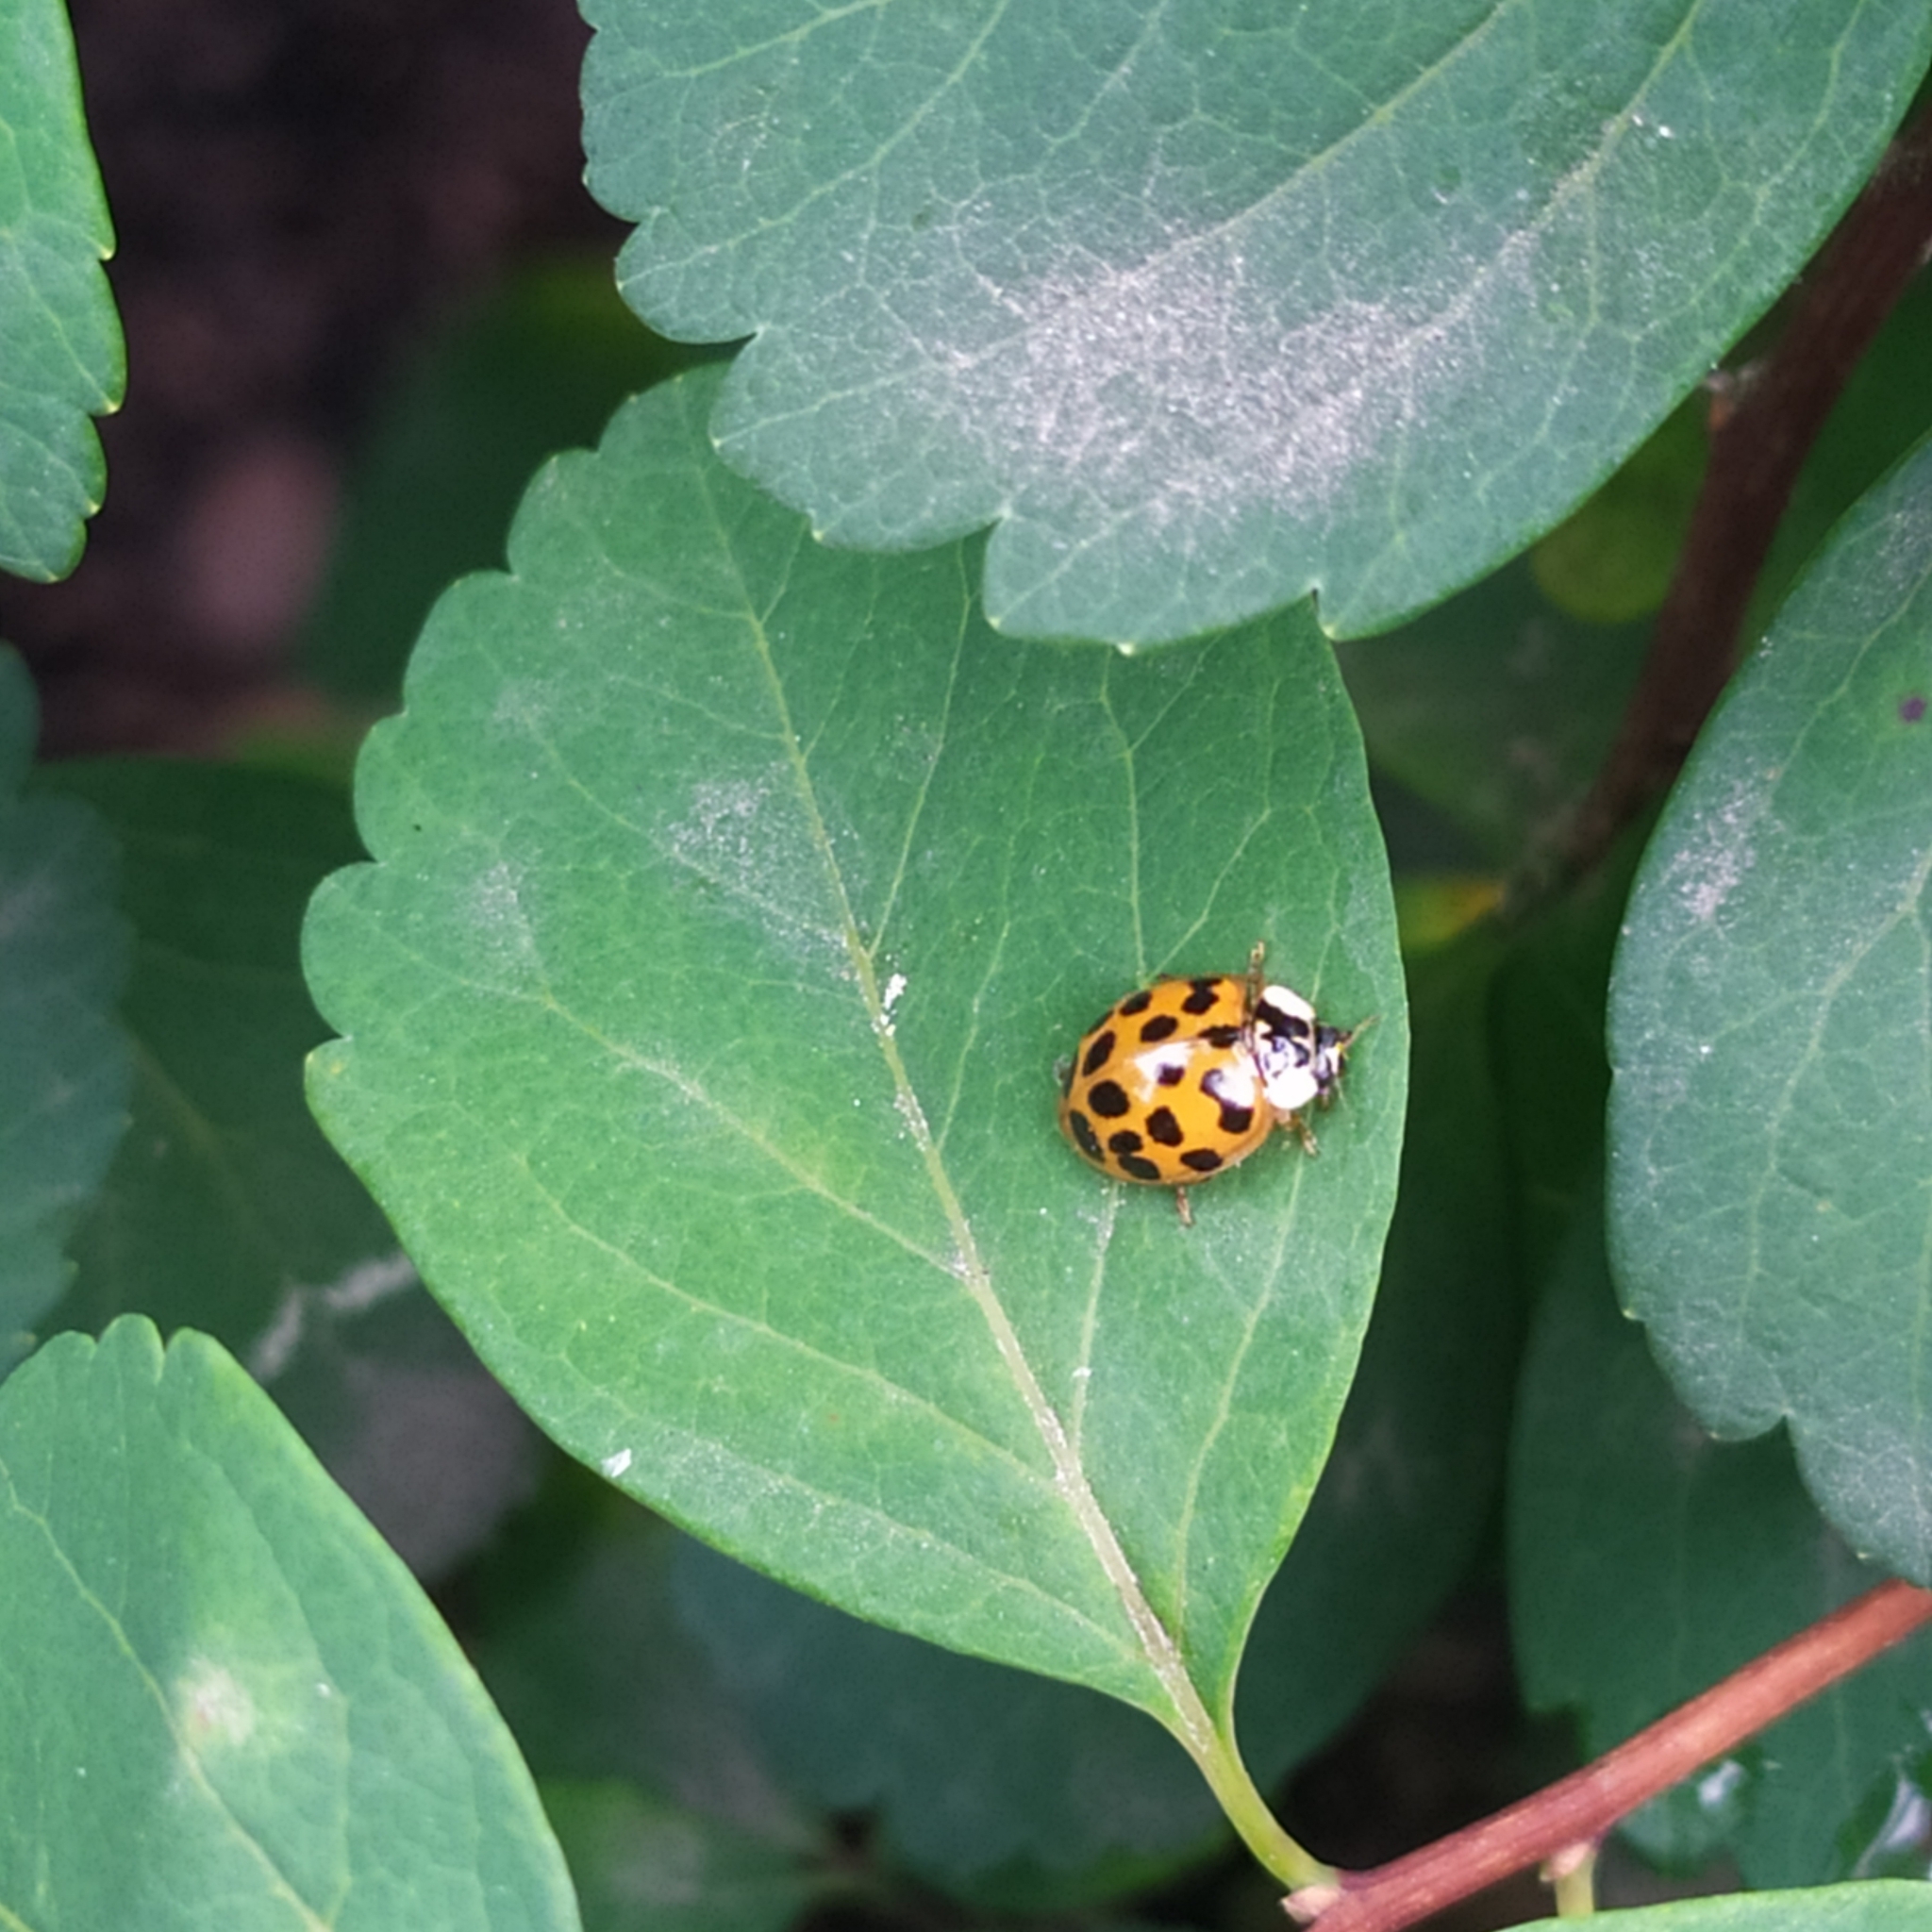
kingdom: Animalia
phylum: Arthropoda
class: Insecta
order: Coleoptera
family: Coccinellidae
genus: Harmonia
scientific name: Harmonia axyridis
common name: Harlequin ladybird
